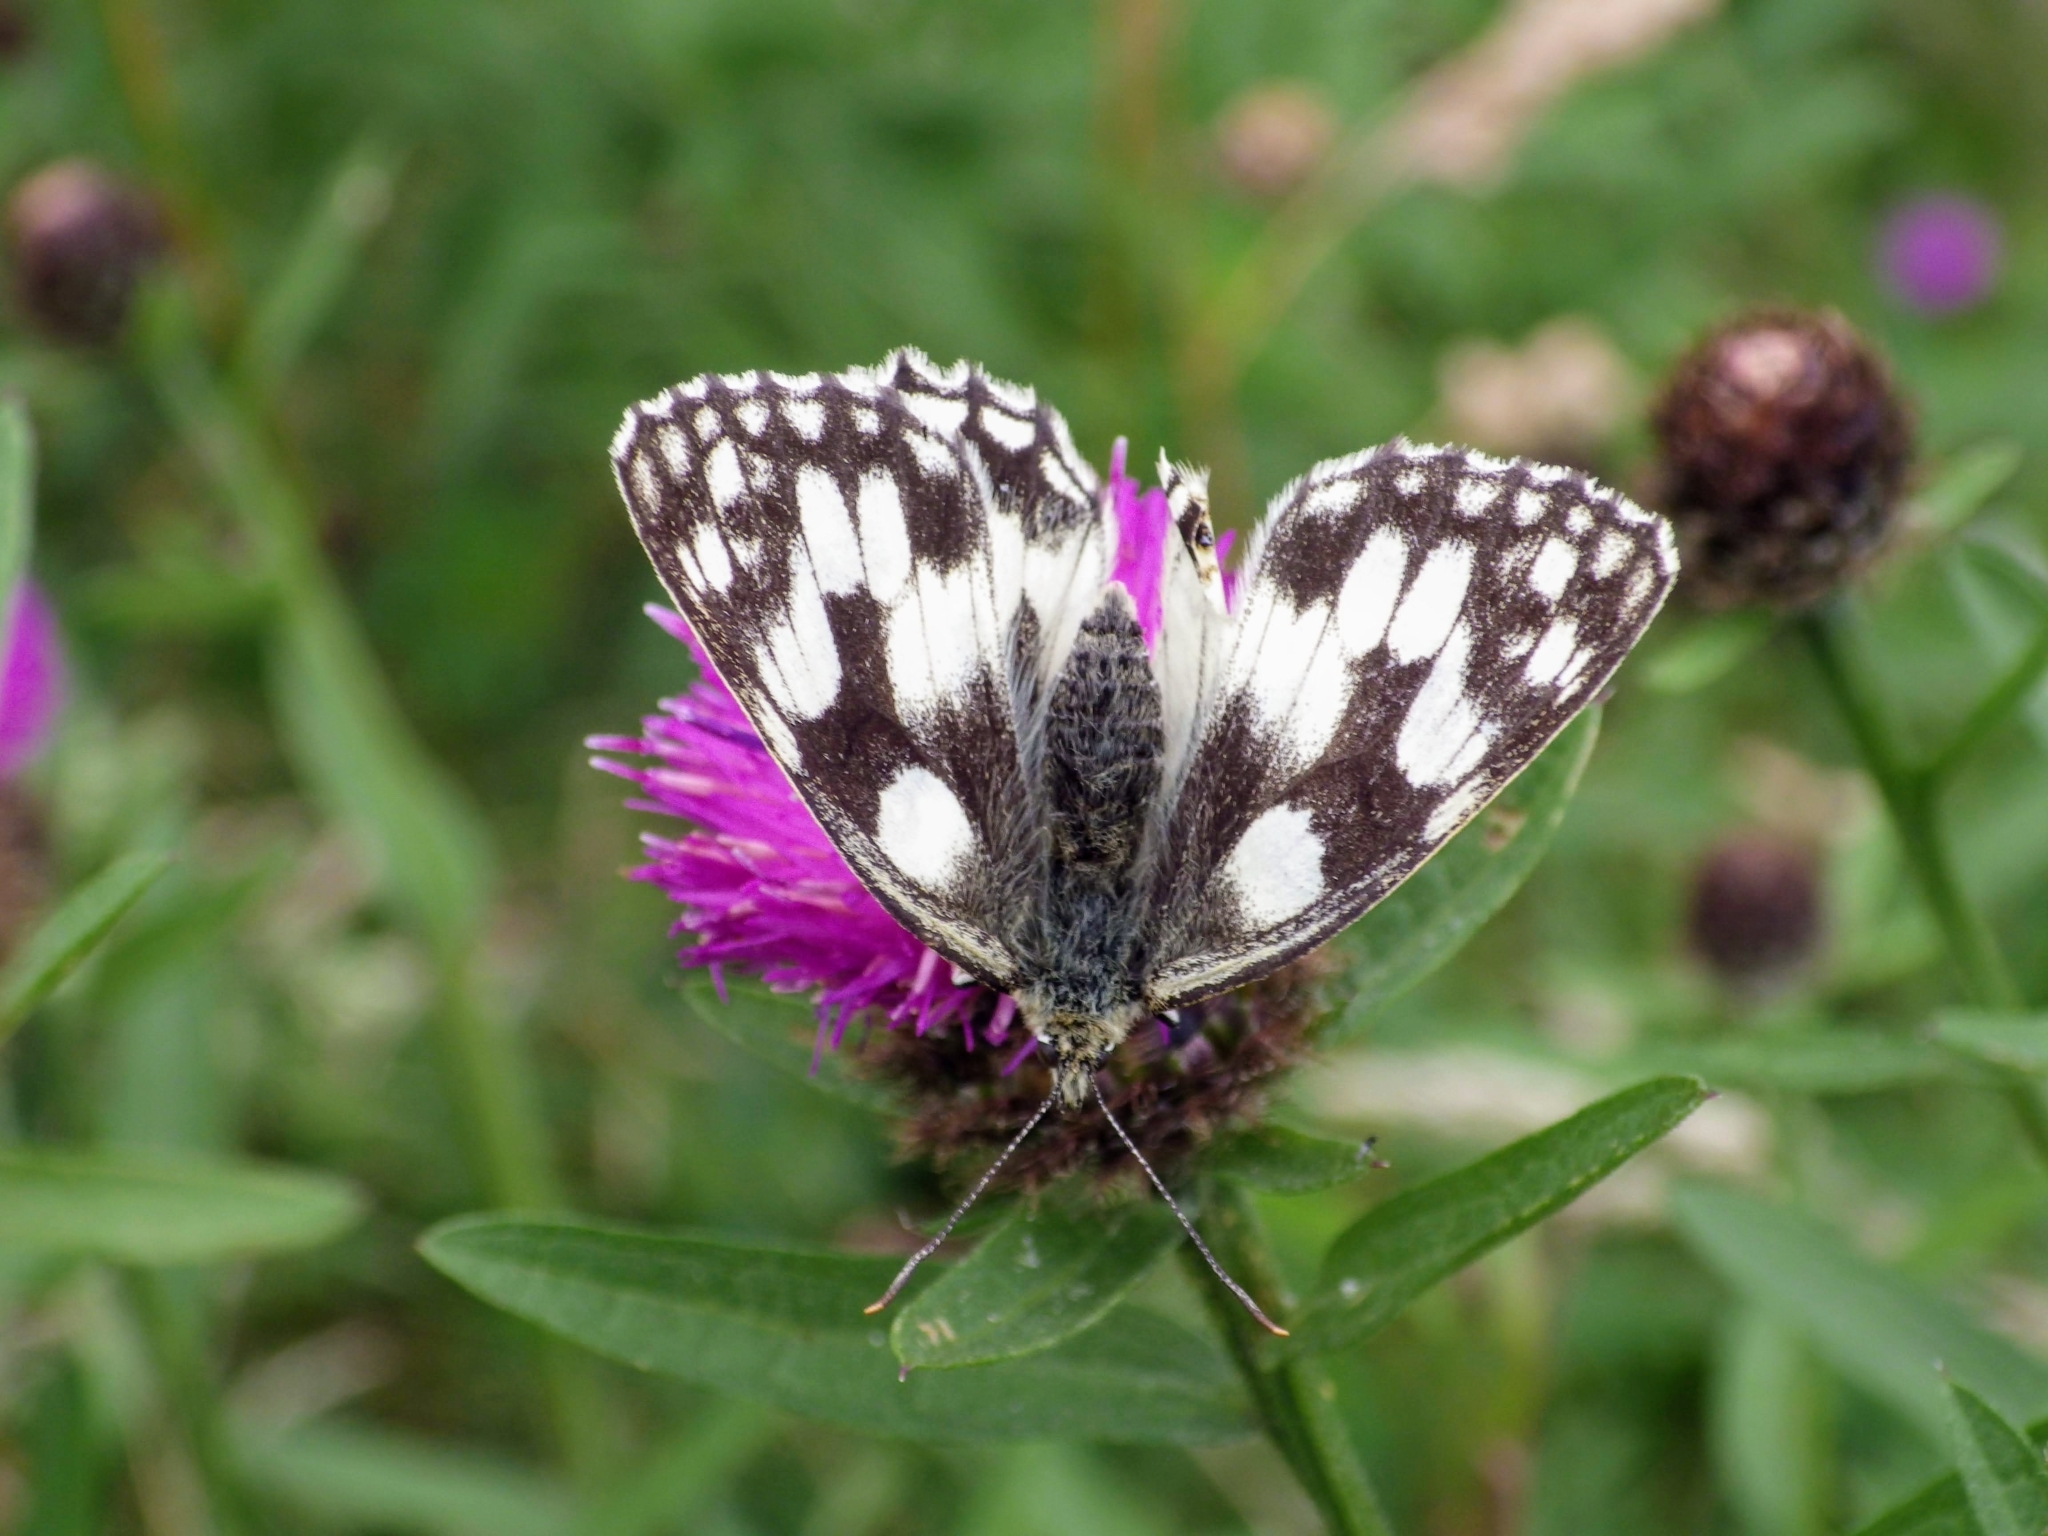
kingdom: Animalia
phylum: Arthropoda
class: Insecta
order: Lepidoptera
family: Nymphalidae
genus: Melanargia
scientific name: Melanargia galathea
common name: Marbled white
